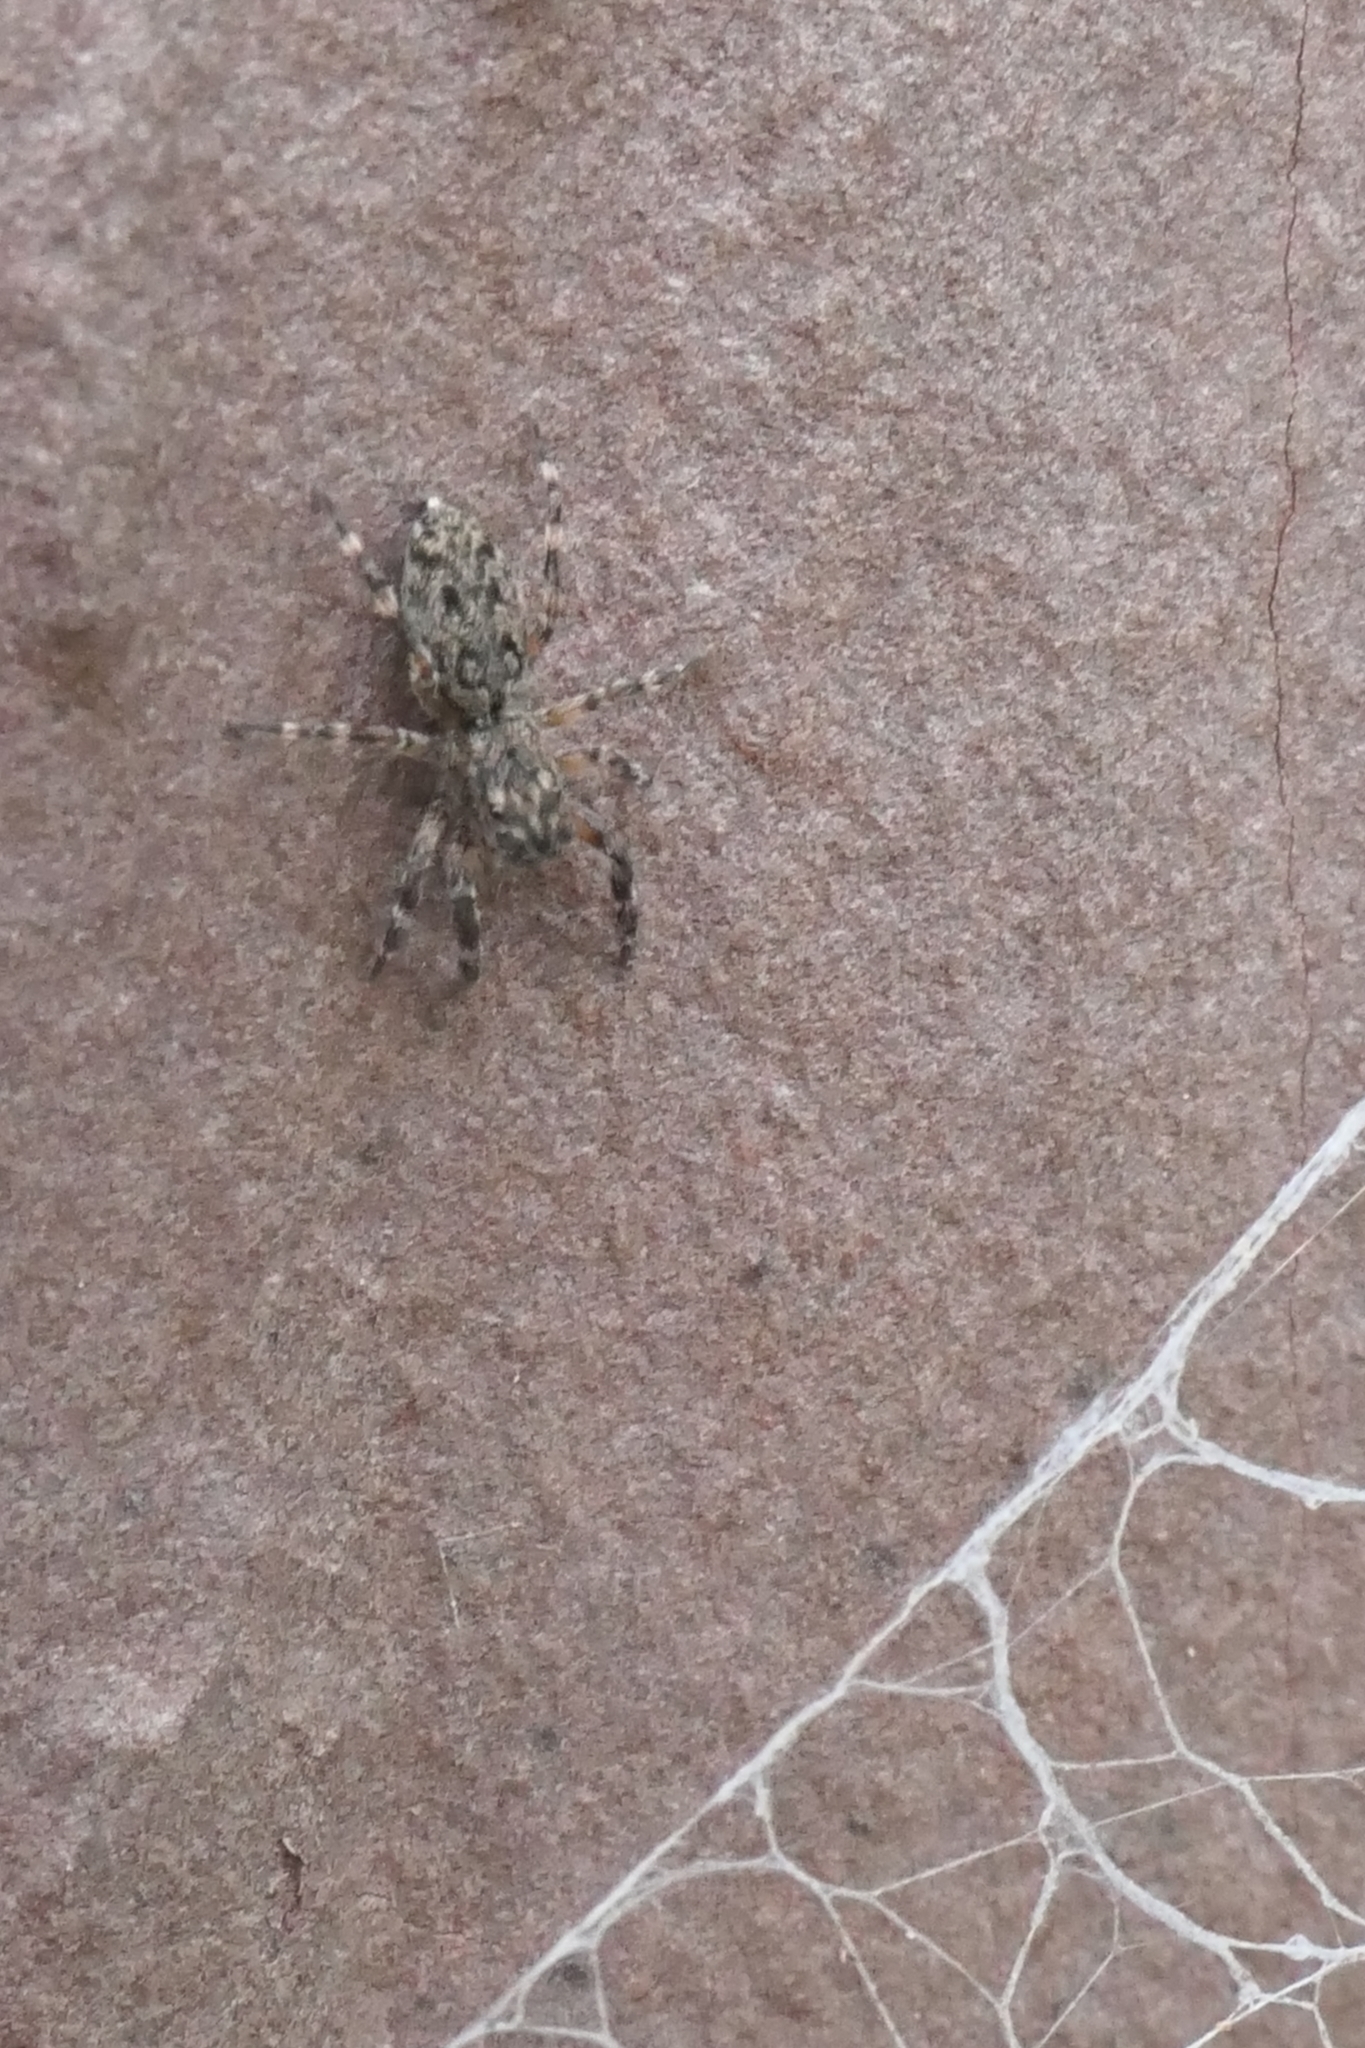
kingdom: Animalia
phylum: Arthropoda
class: Arachnida
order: Araneae
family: Salticidae
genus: Adoxotoma
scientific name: Adoxotoma forsteri
